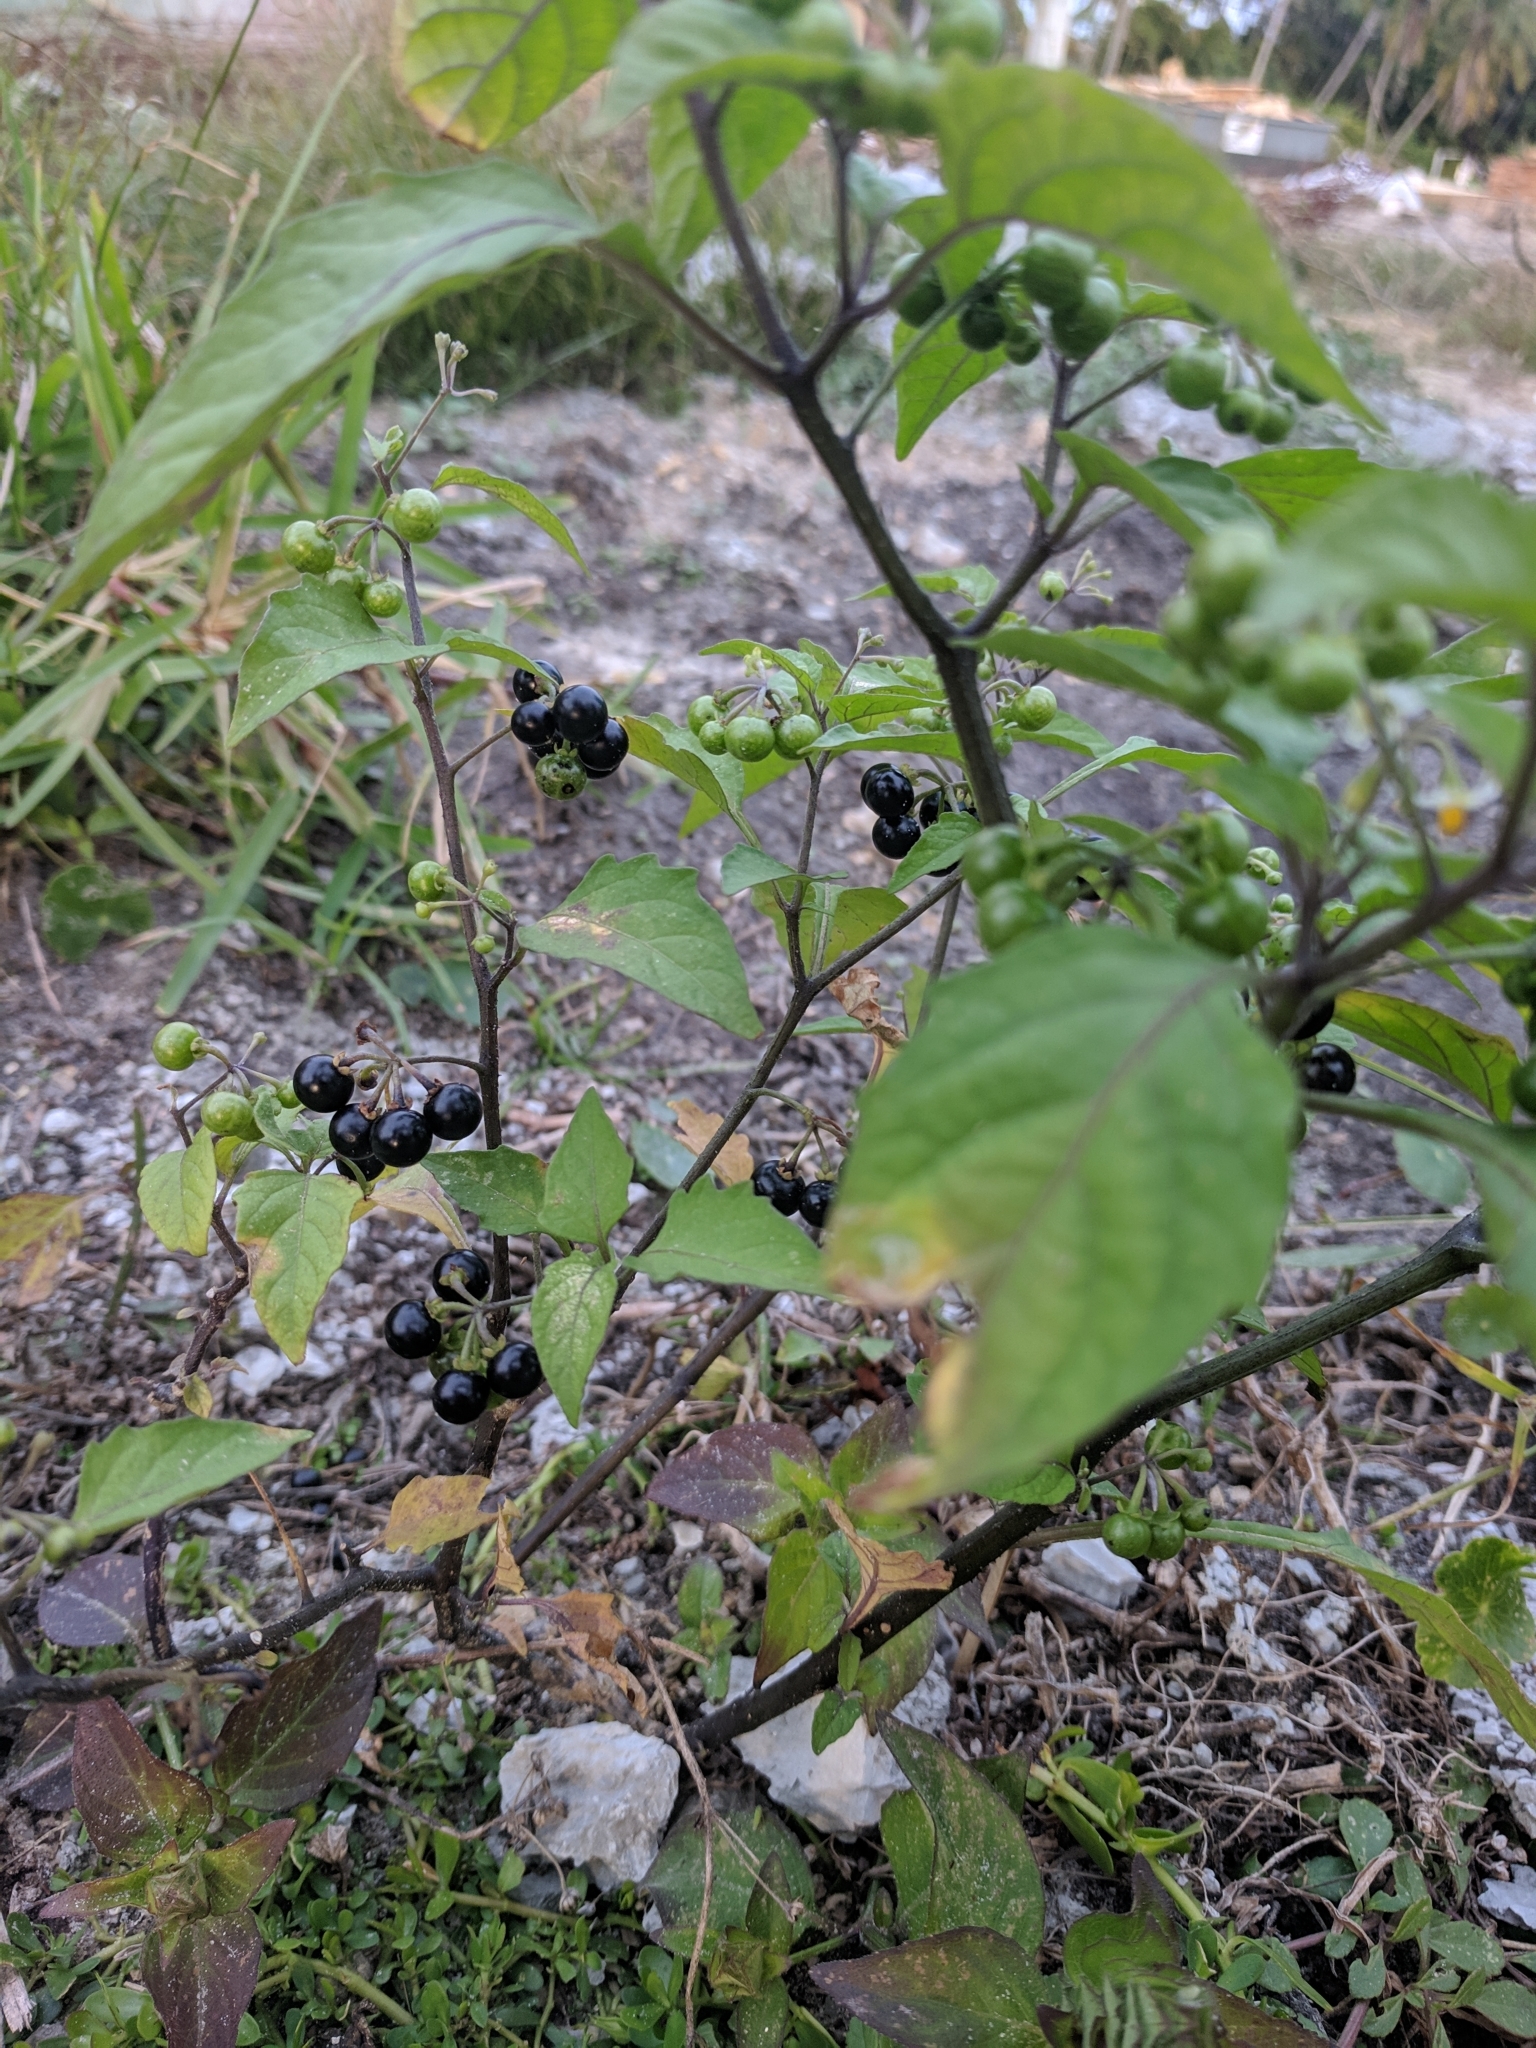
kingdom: Plantae
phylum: Tracheophyta
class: Magnoliopsida
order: Solanales
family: Solanaceae
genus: Solanum
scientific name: Solanum americanum
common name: American black nightshade
